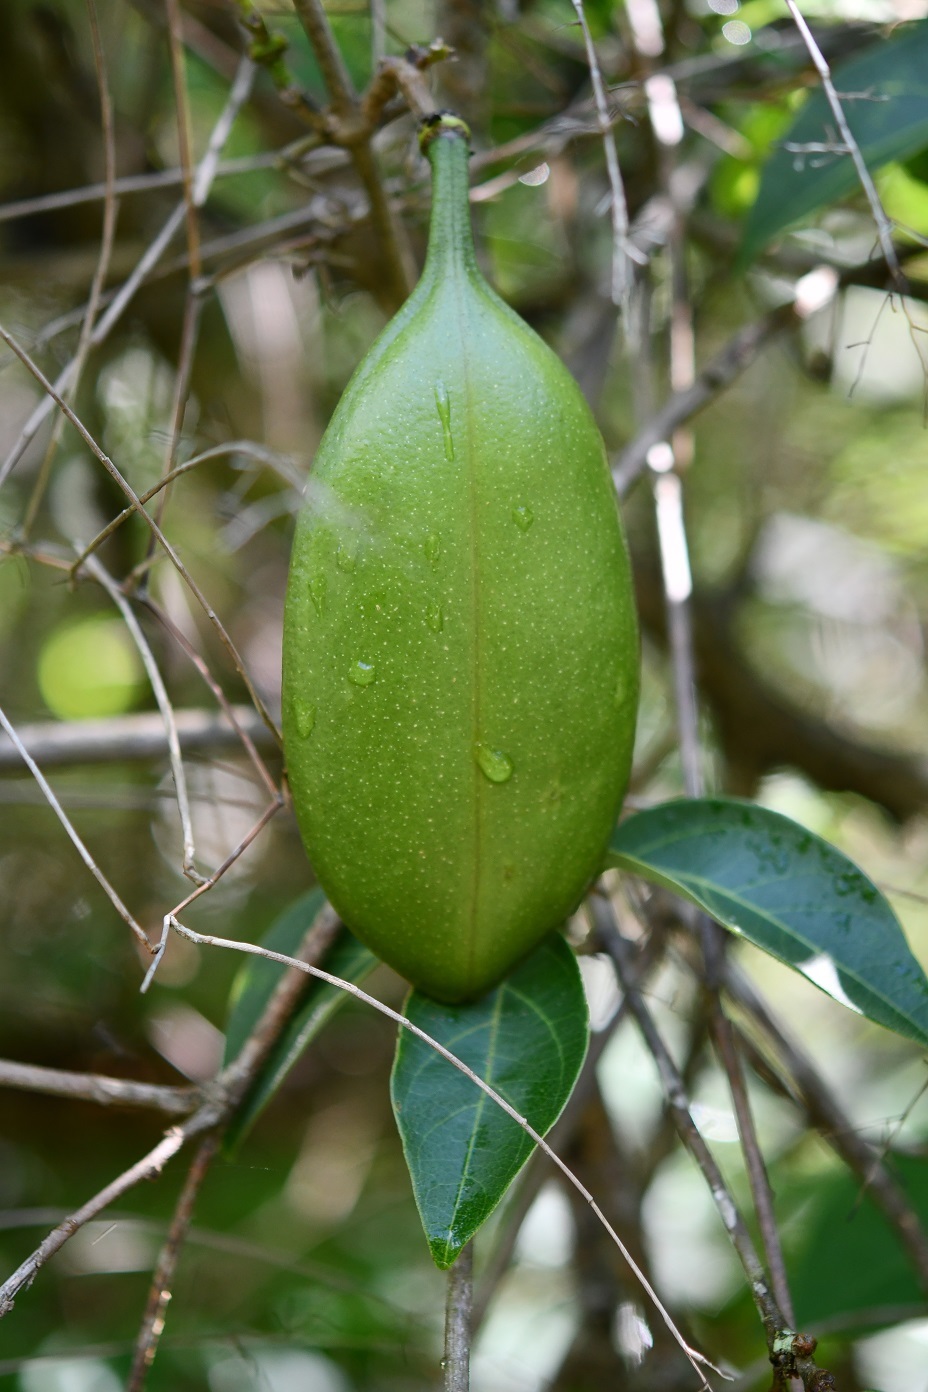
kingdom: Plantae
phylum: Tracheophyta
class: Magnoliopsida
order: Lamiales
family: Bignoniaceae
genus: Anemopaegma
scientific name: Anemopaegma puberulum
